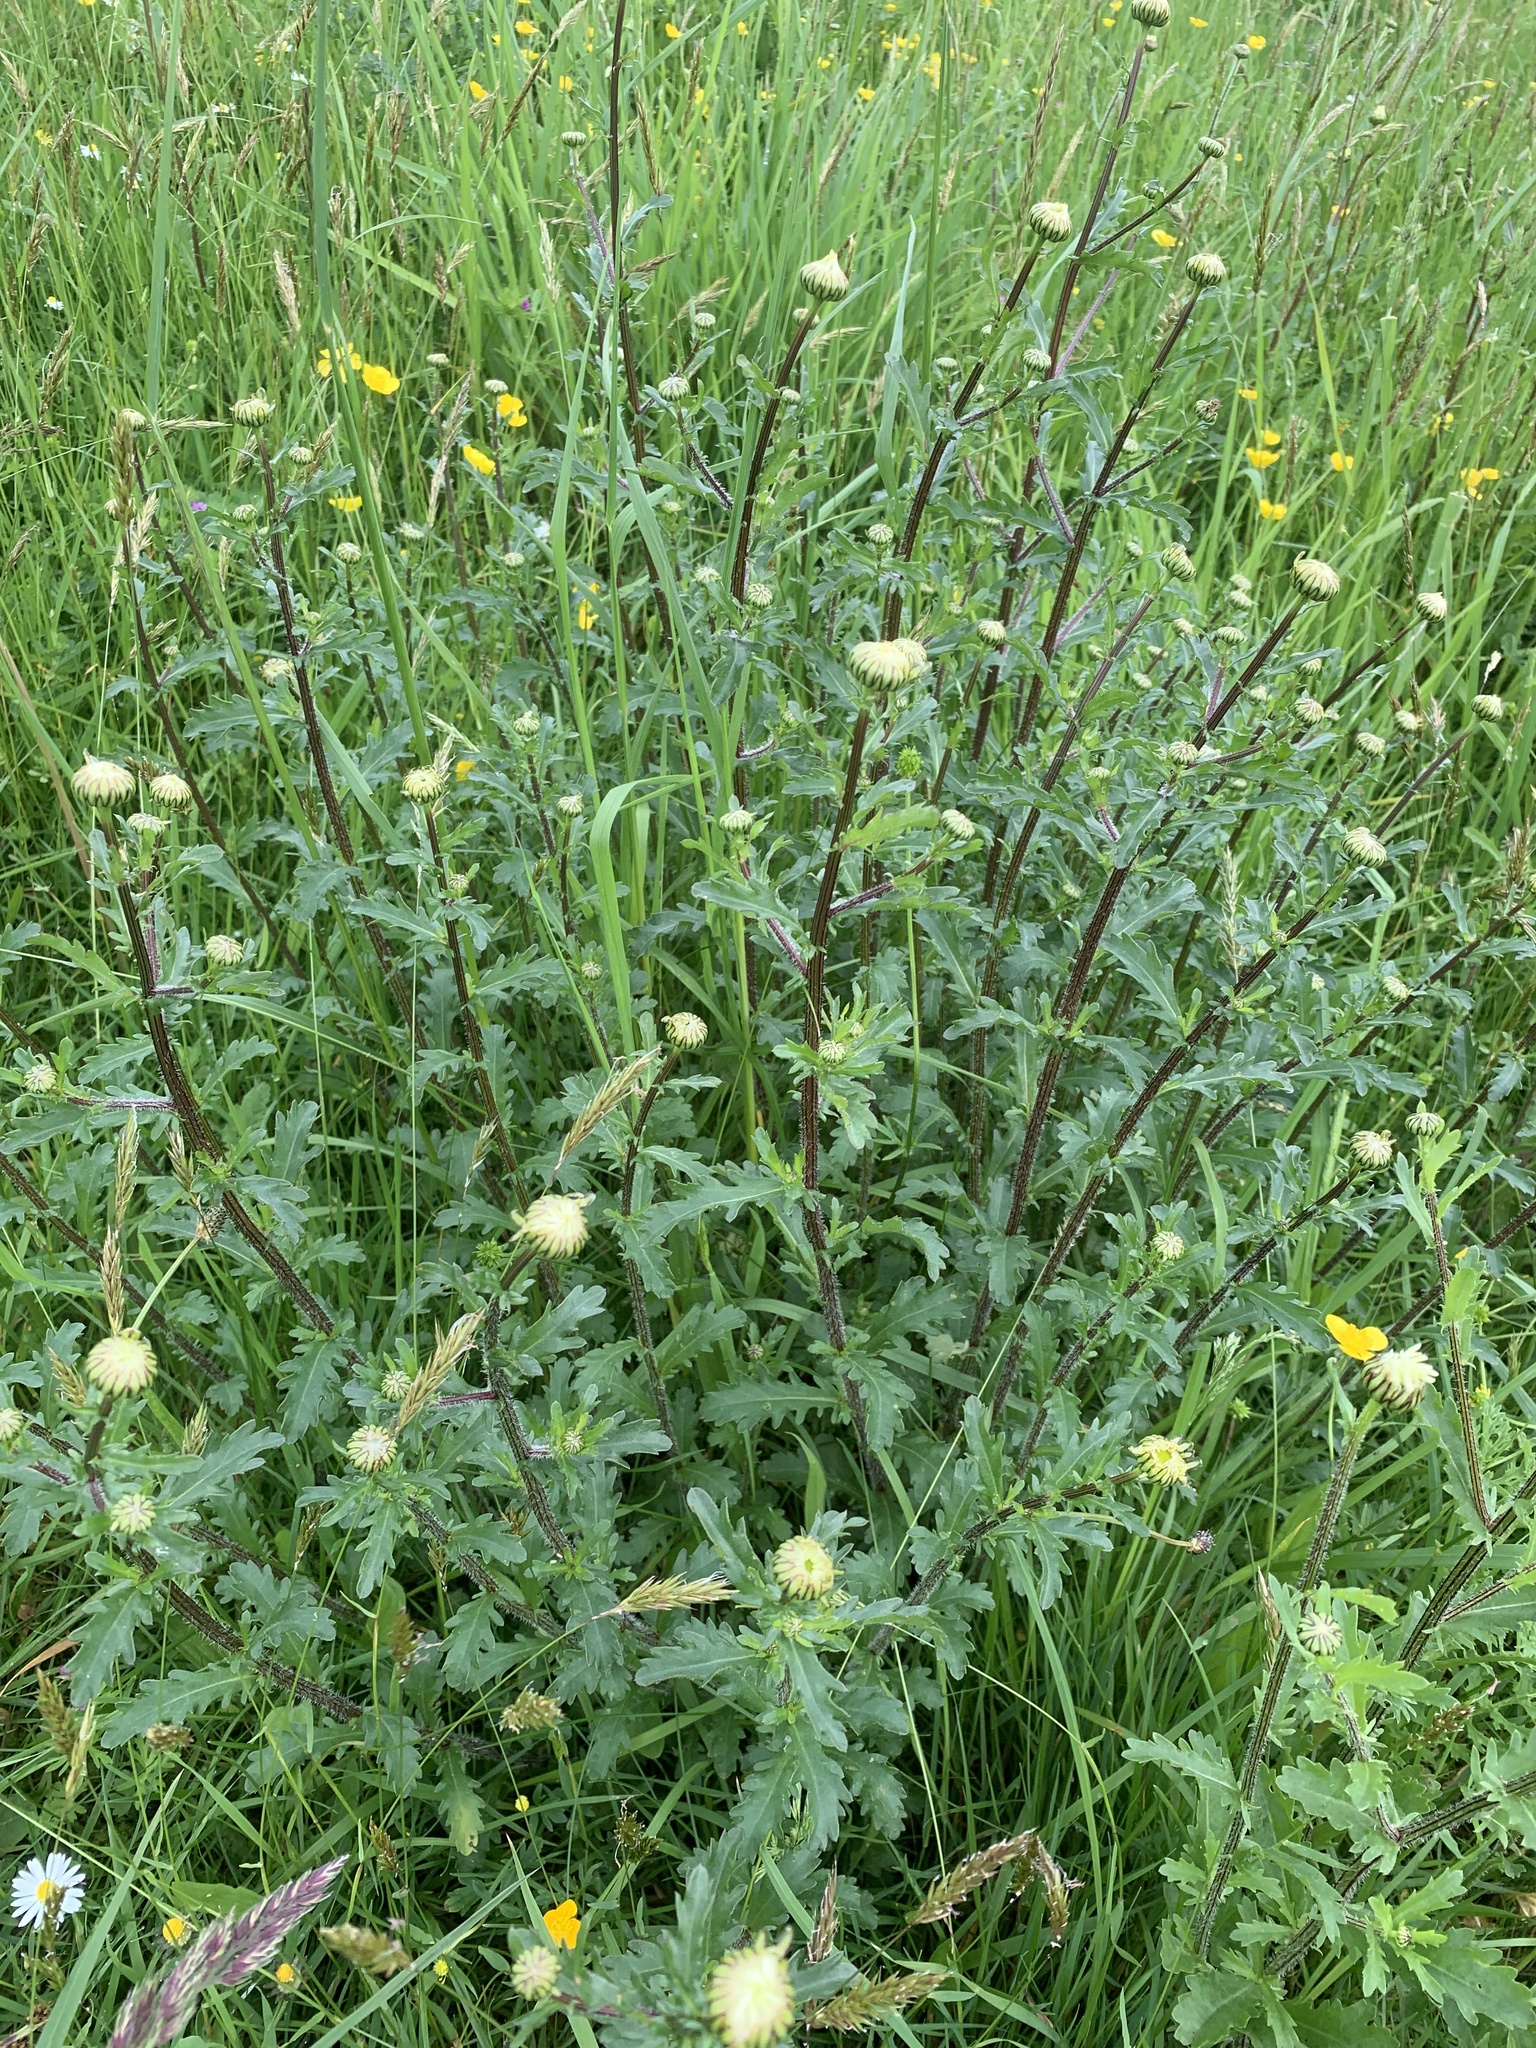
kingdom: Plantae
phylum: Tracheophyta
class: Magnoliopsida
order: Asterales
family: Asteraceae
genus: Leucanthemum
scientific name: Leucanthemum vulgare
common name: Oxeye daisy
